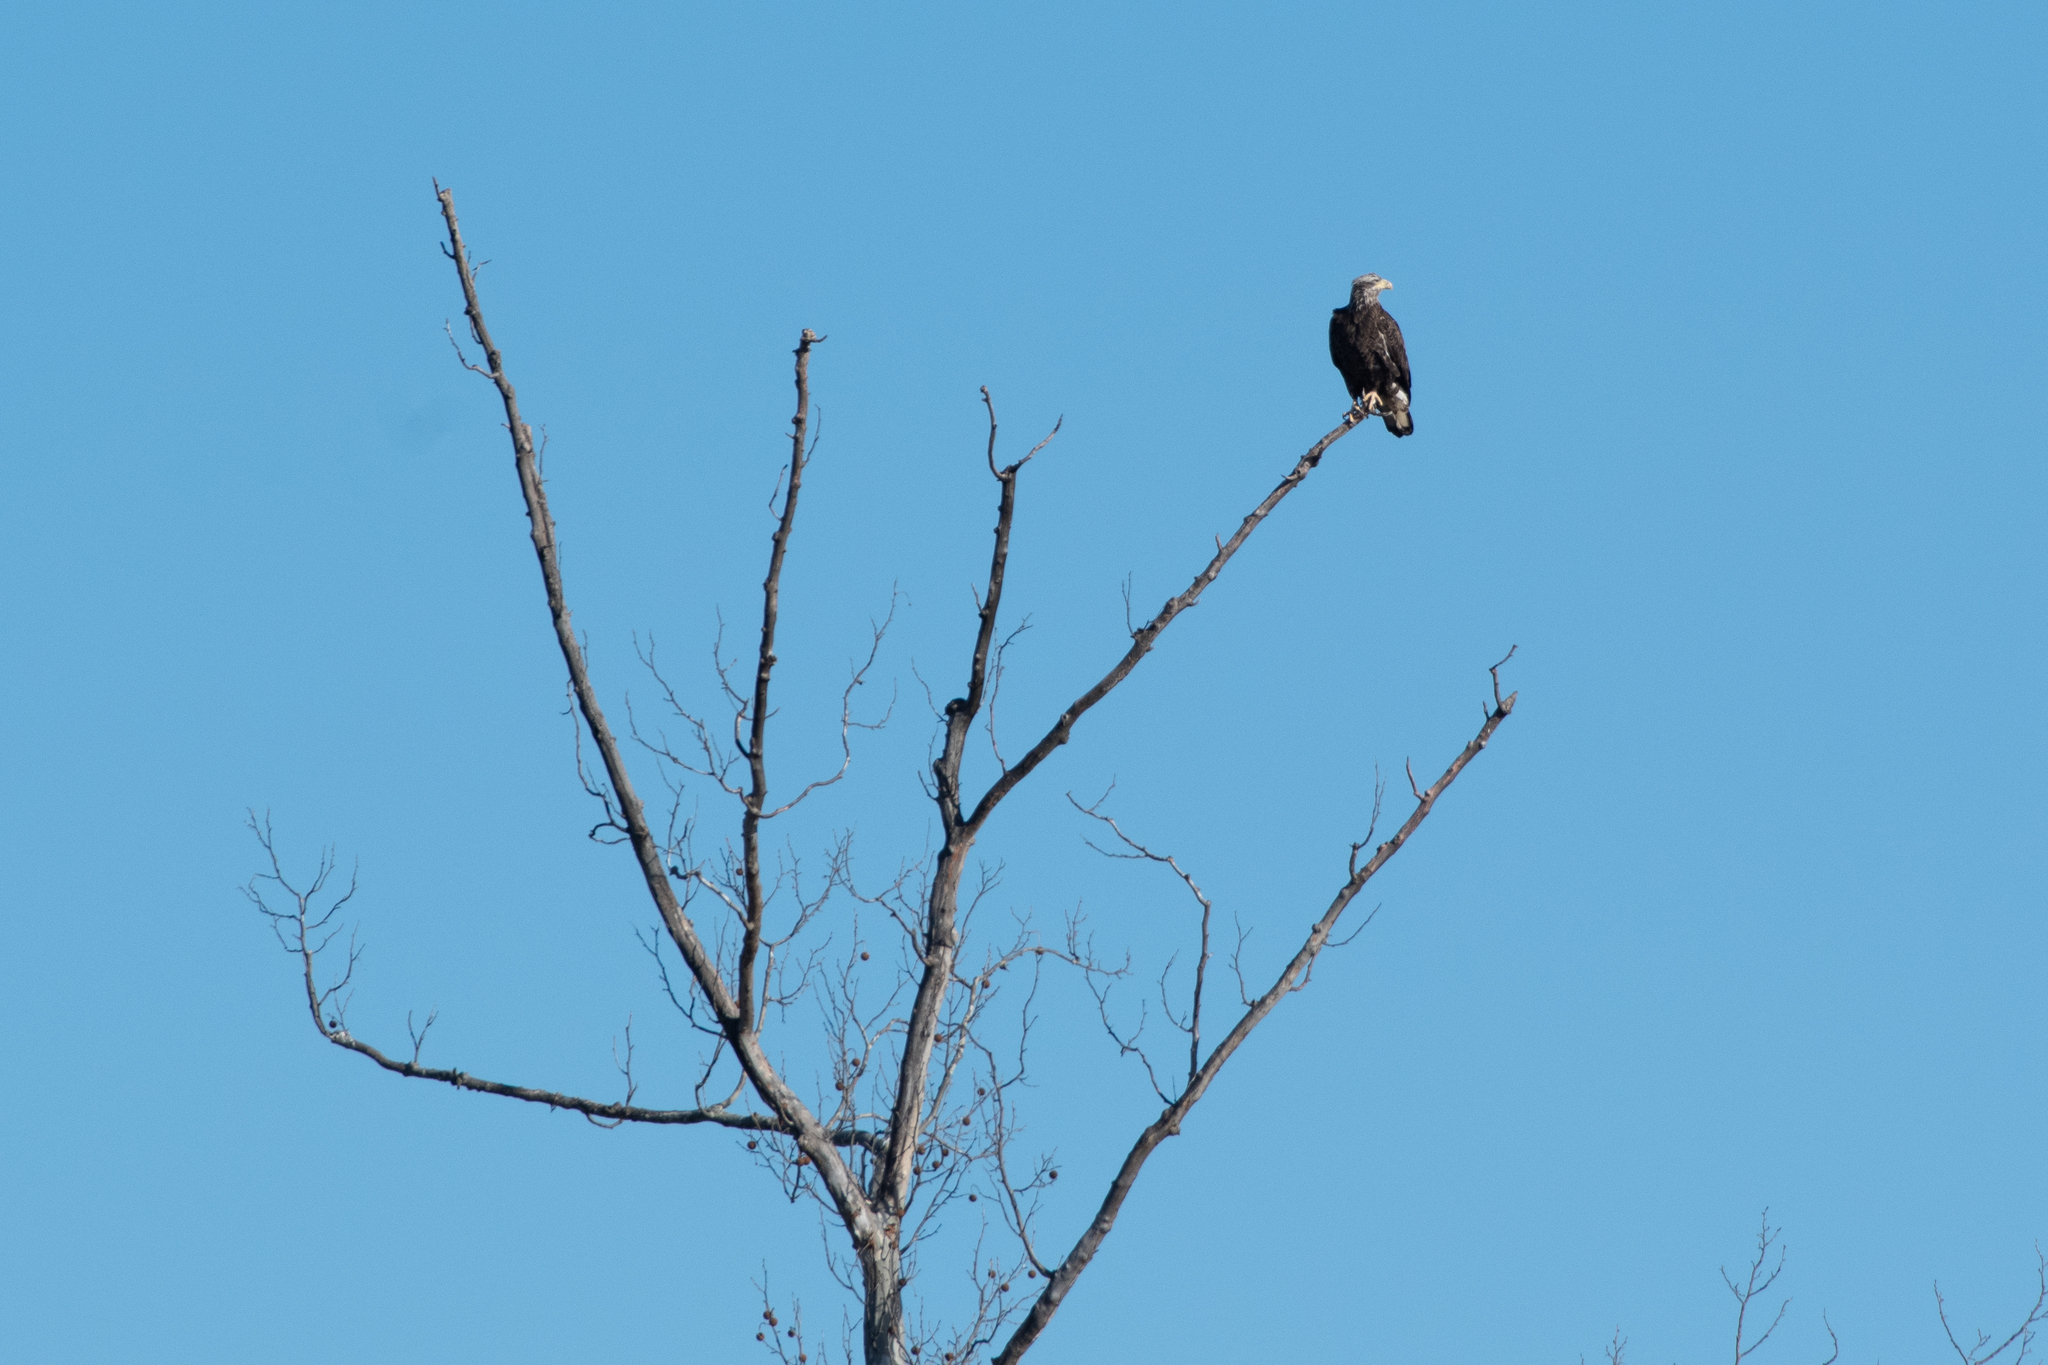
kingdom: Animalia
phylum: Chordata
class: Aves
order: Accipitriformes
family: Accipitridae
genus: Haliaeetus
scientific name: Haliaeetus leucocephalus
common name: Bald eagle
